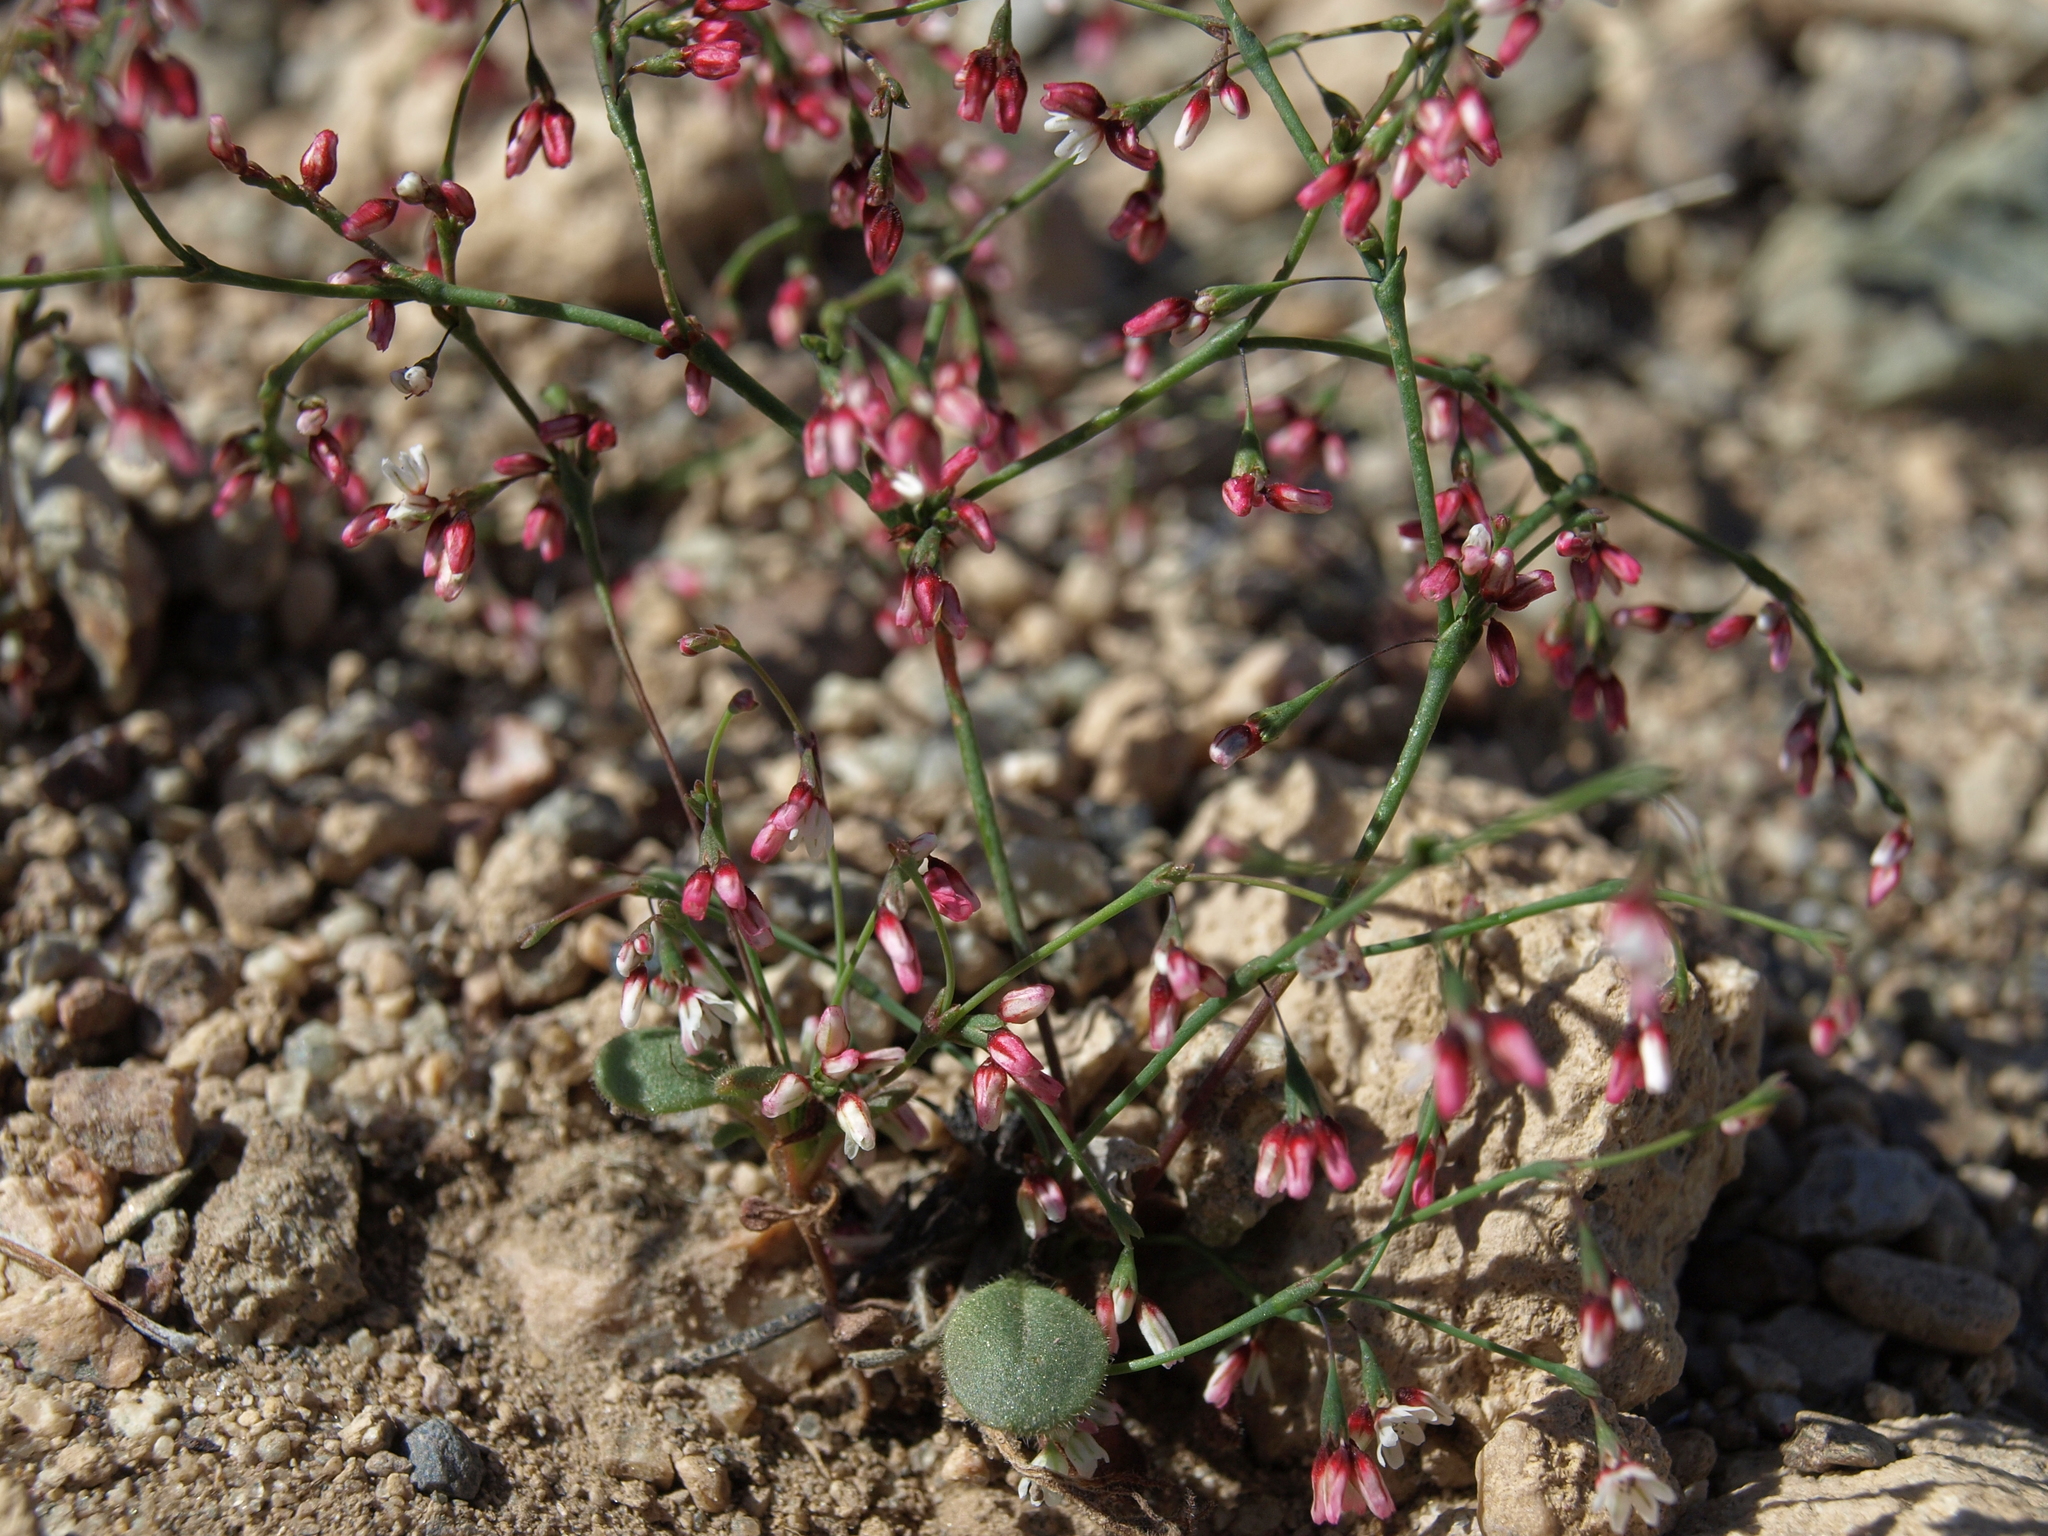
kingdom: Plantae
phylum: Tracheophyta
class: Magnoliopsida
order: Caryophyllales
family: Polygonaceae
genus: Eriogonum
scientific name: Eriogonum esmeraldense
